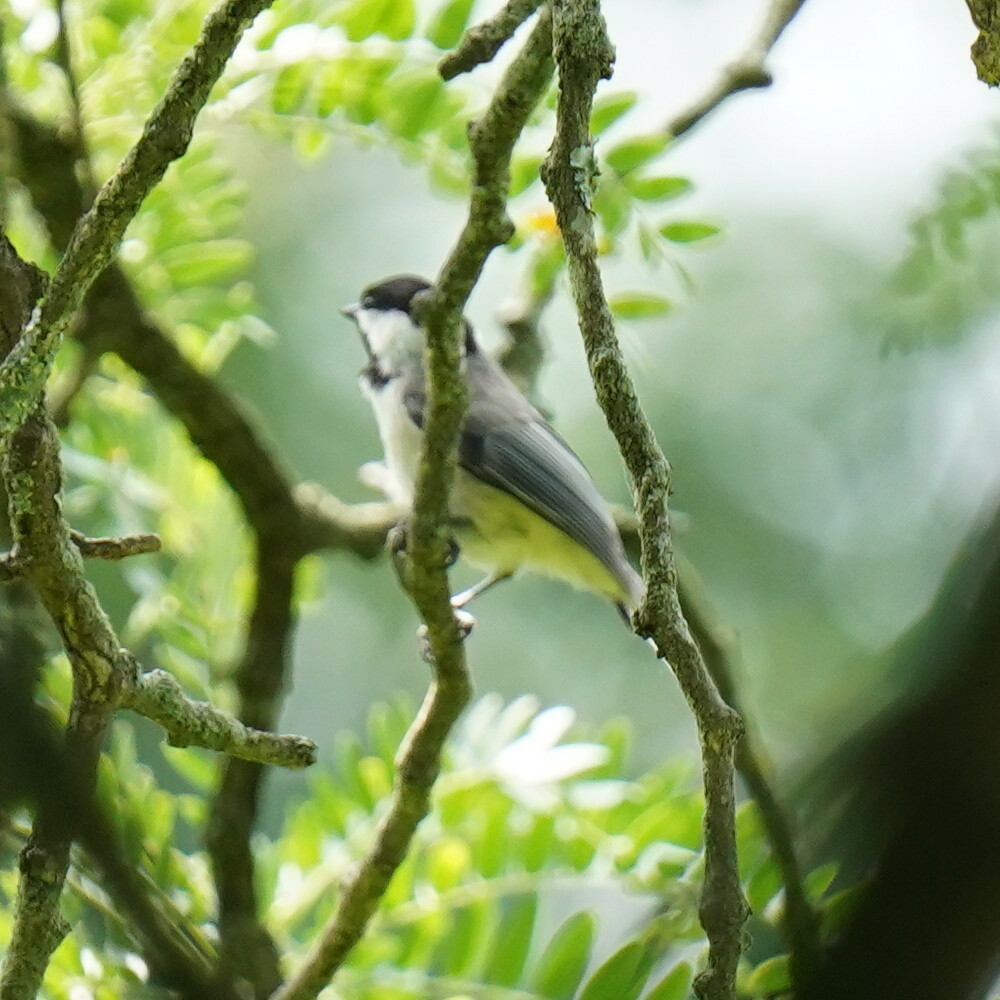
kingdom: Animalia
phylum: Chordata
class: Aves
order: Passeriformes
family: Paridae
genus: Poecile
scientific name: Poecile carolinensis
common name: Carolina chickadee
